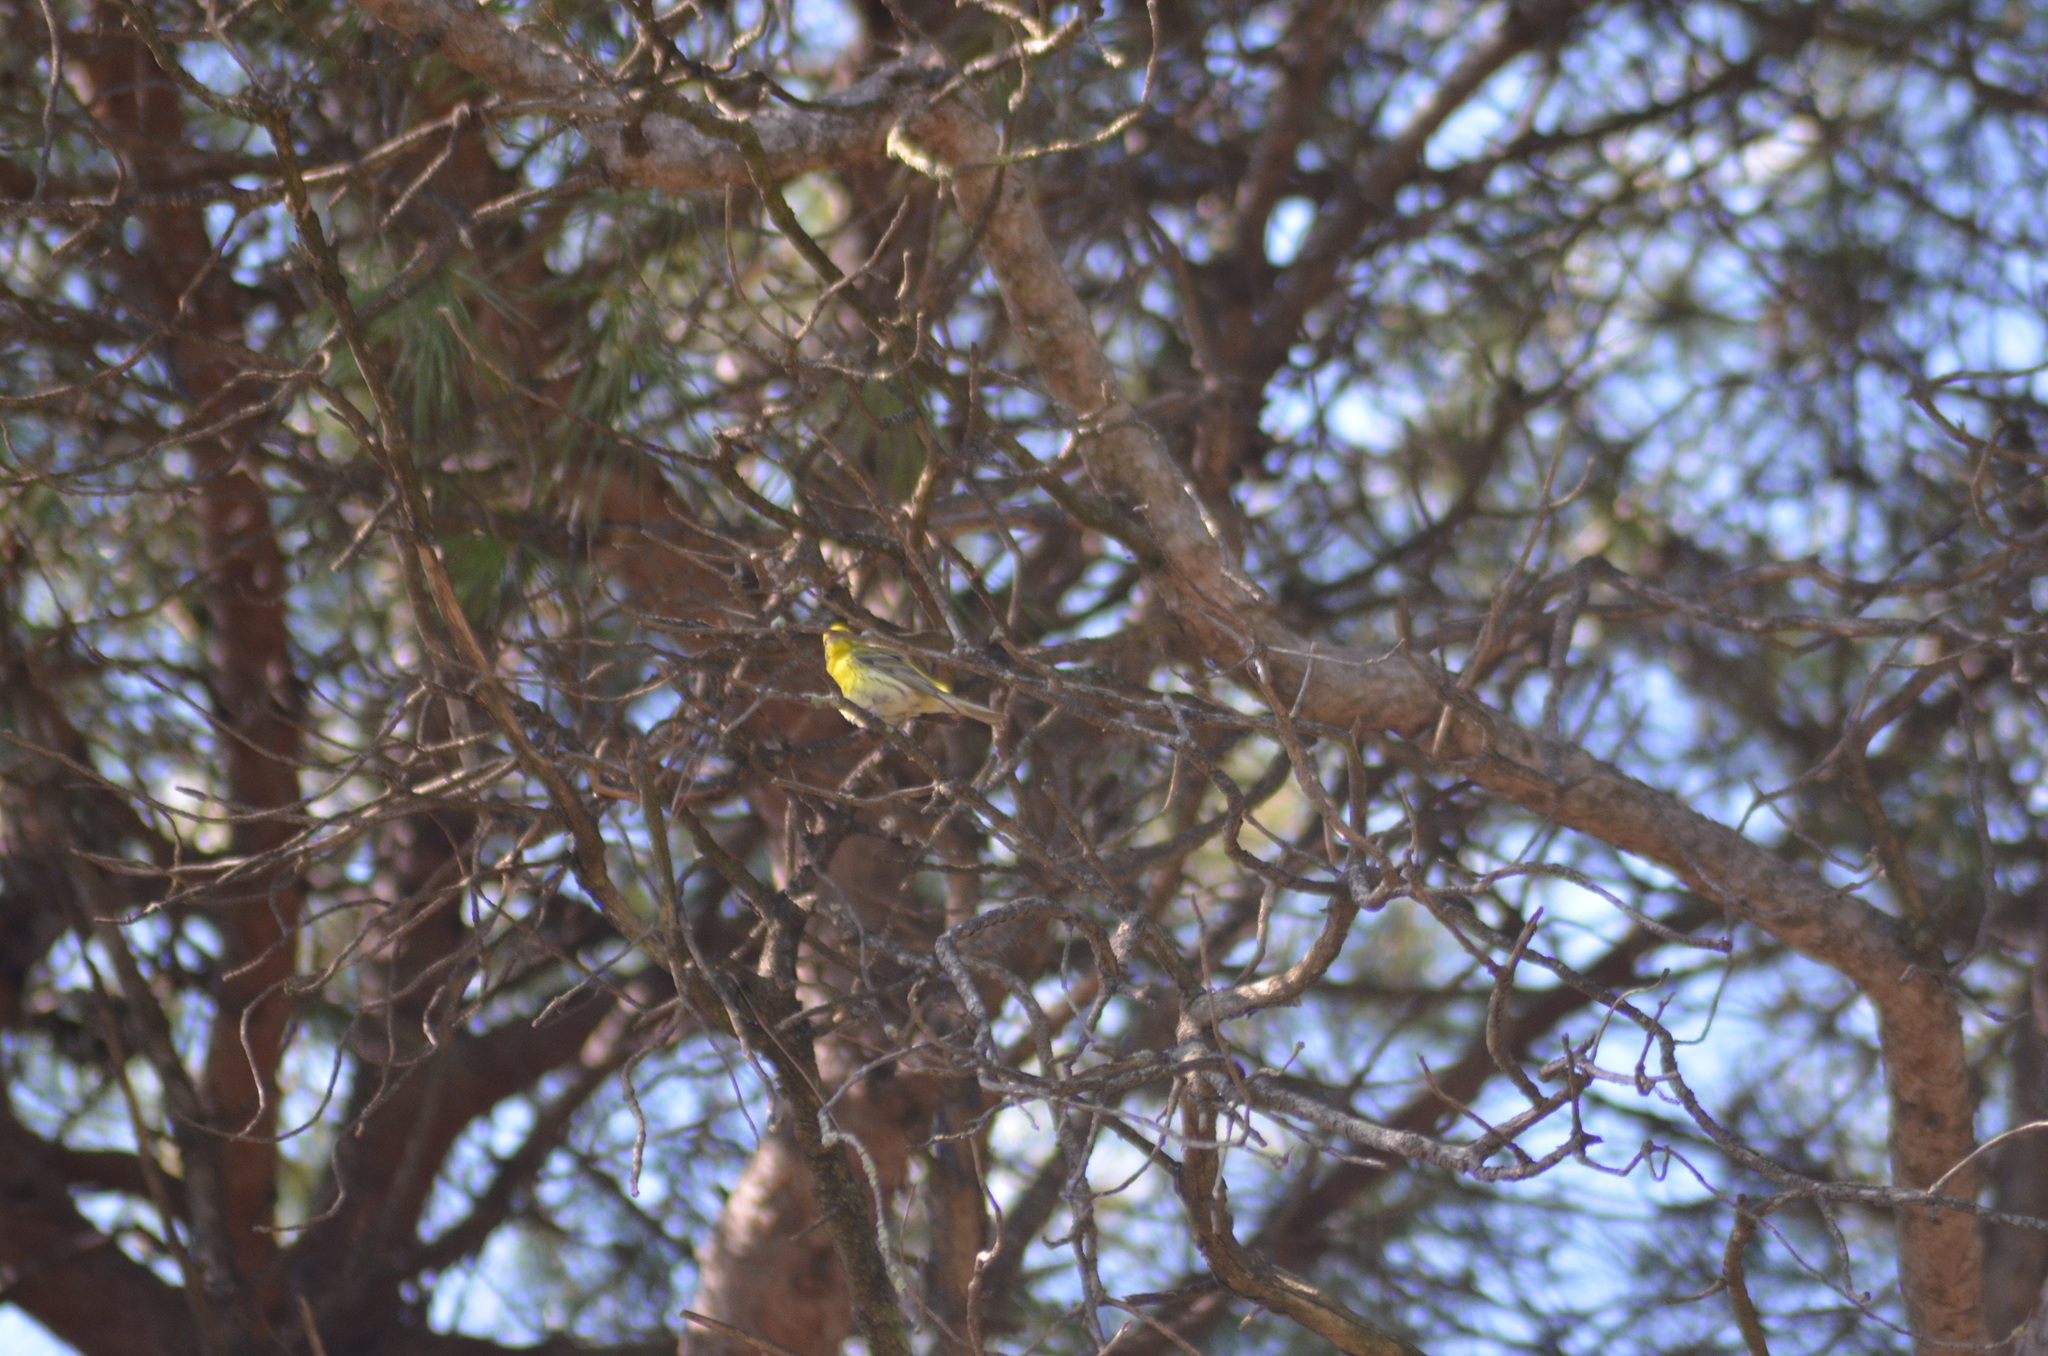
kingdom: Animalia
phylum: Chordata
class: Aves
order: Passeriformes
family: Fringillidae
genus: Serinus
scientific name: Serinus serinus
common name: European serin
